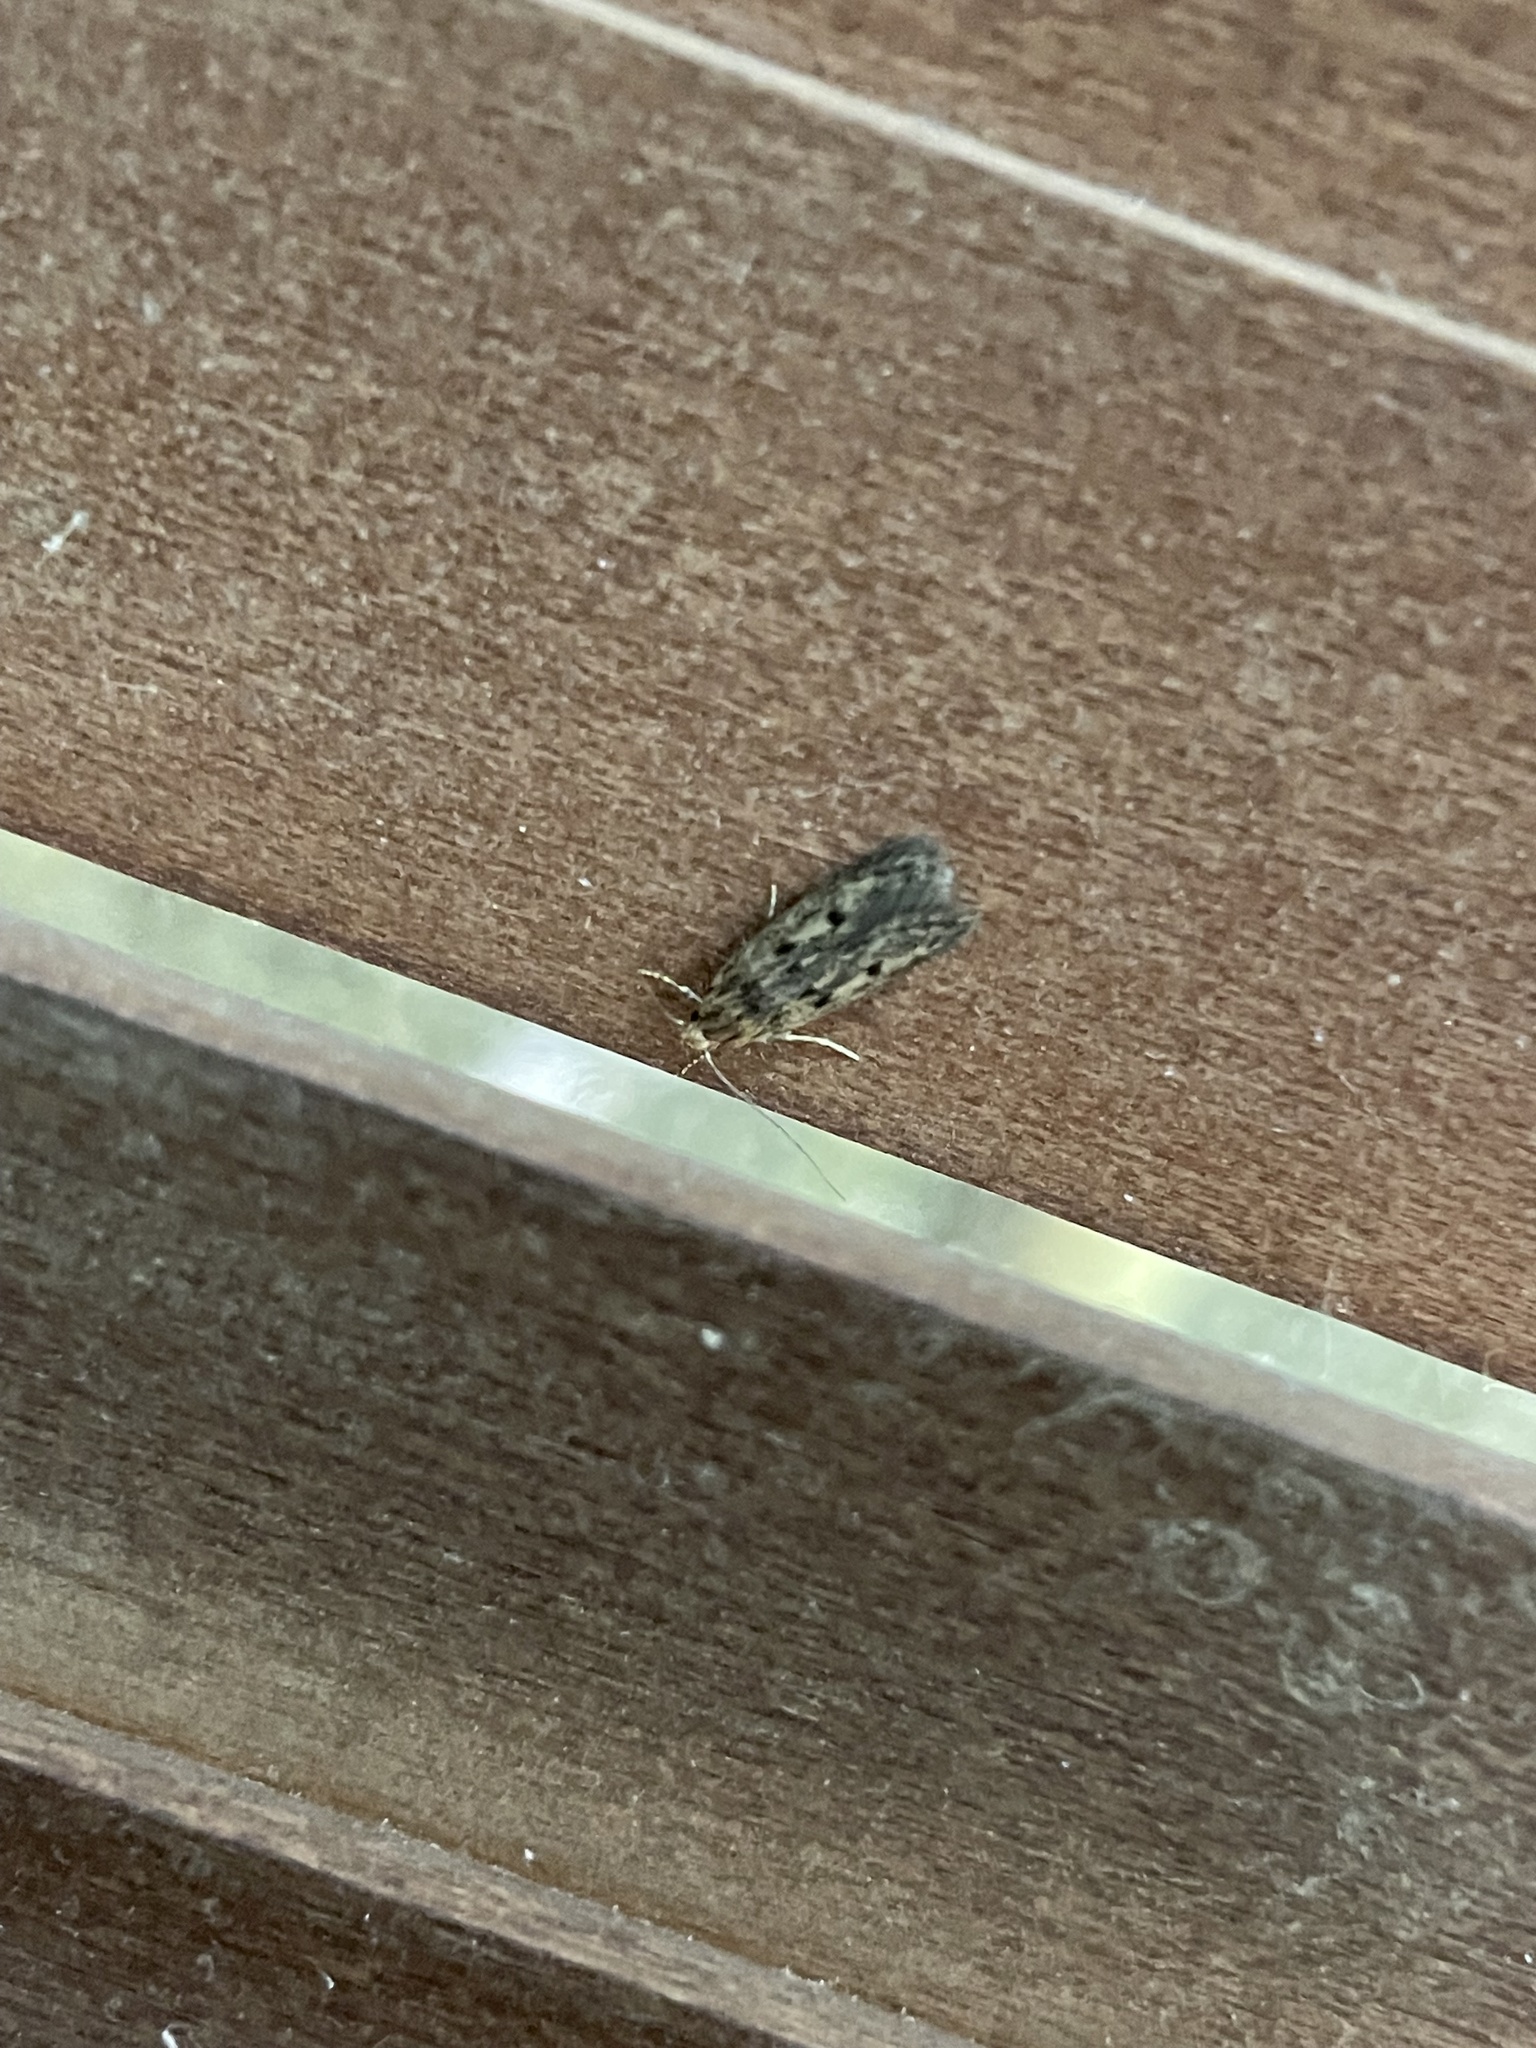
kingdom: Animalia
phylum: Arthropoda
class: Insecta
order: Lepidoptera
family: Oecophoridae
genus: Hofmannophila
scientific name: Hofmannophila pseudospretella
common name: Brown house moth
